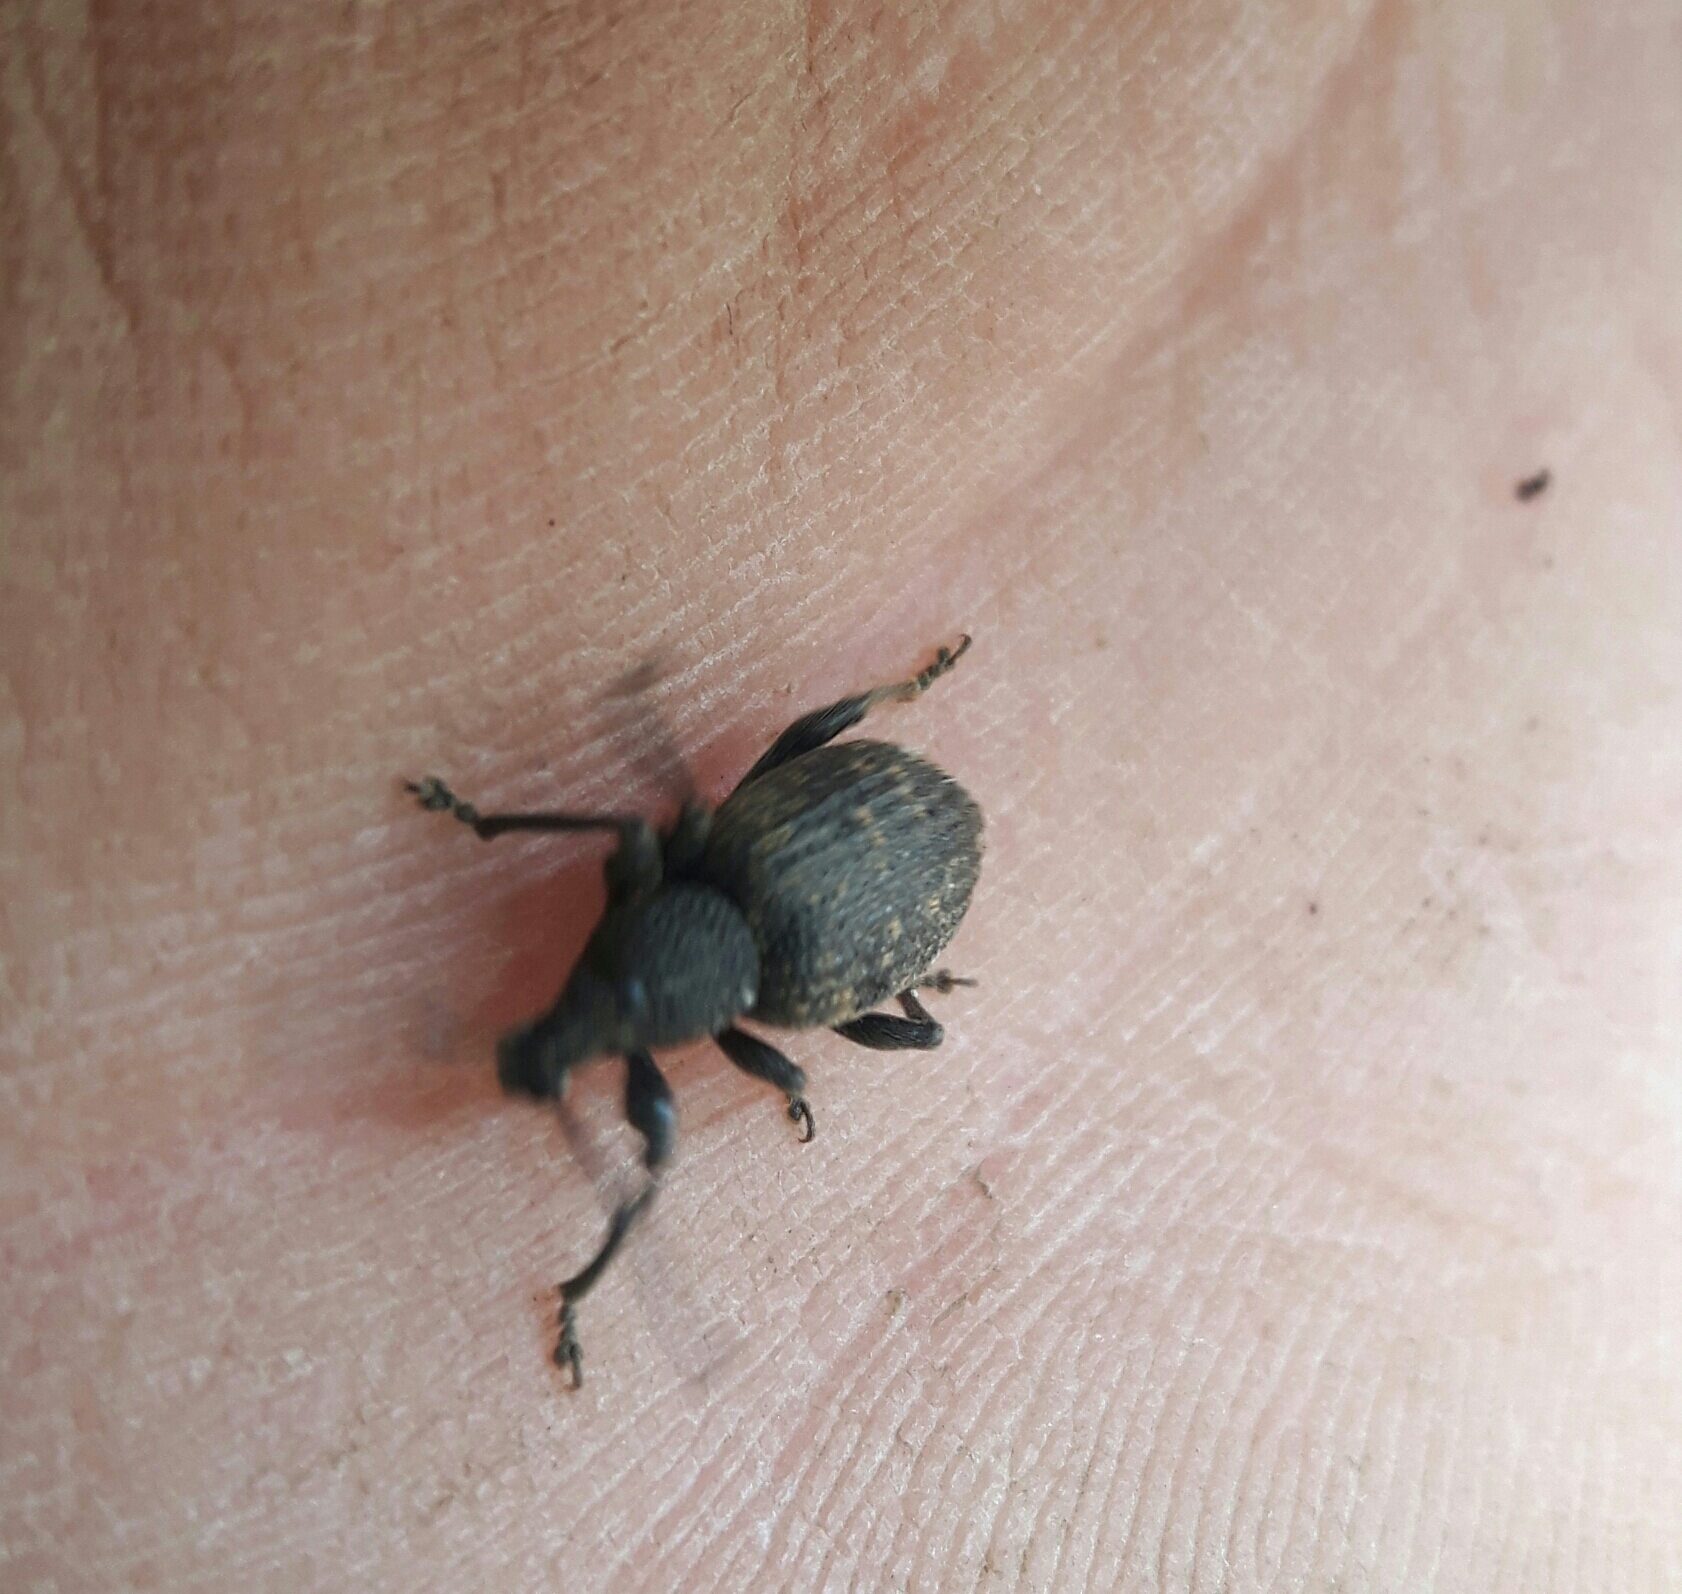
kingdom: Animalia
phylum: Arthropoda
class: Insecta
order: Coleoptera
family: Curculionidae
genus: Otiorhynchus
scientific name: Otiorhynchus sulcatus
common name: Black vine weevil
